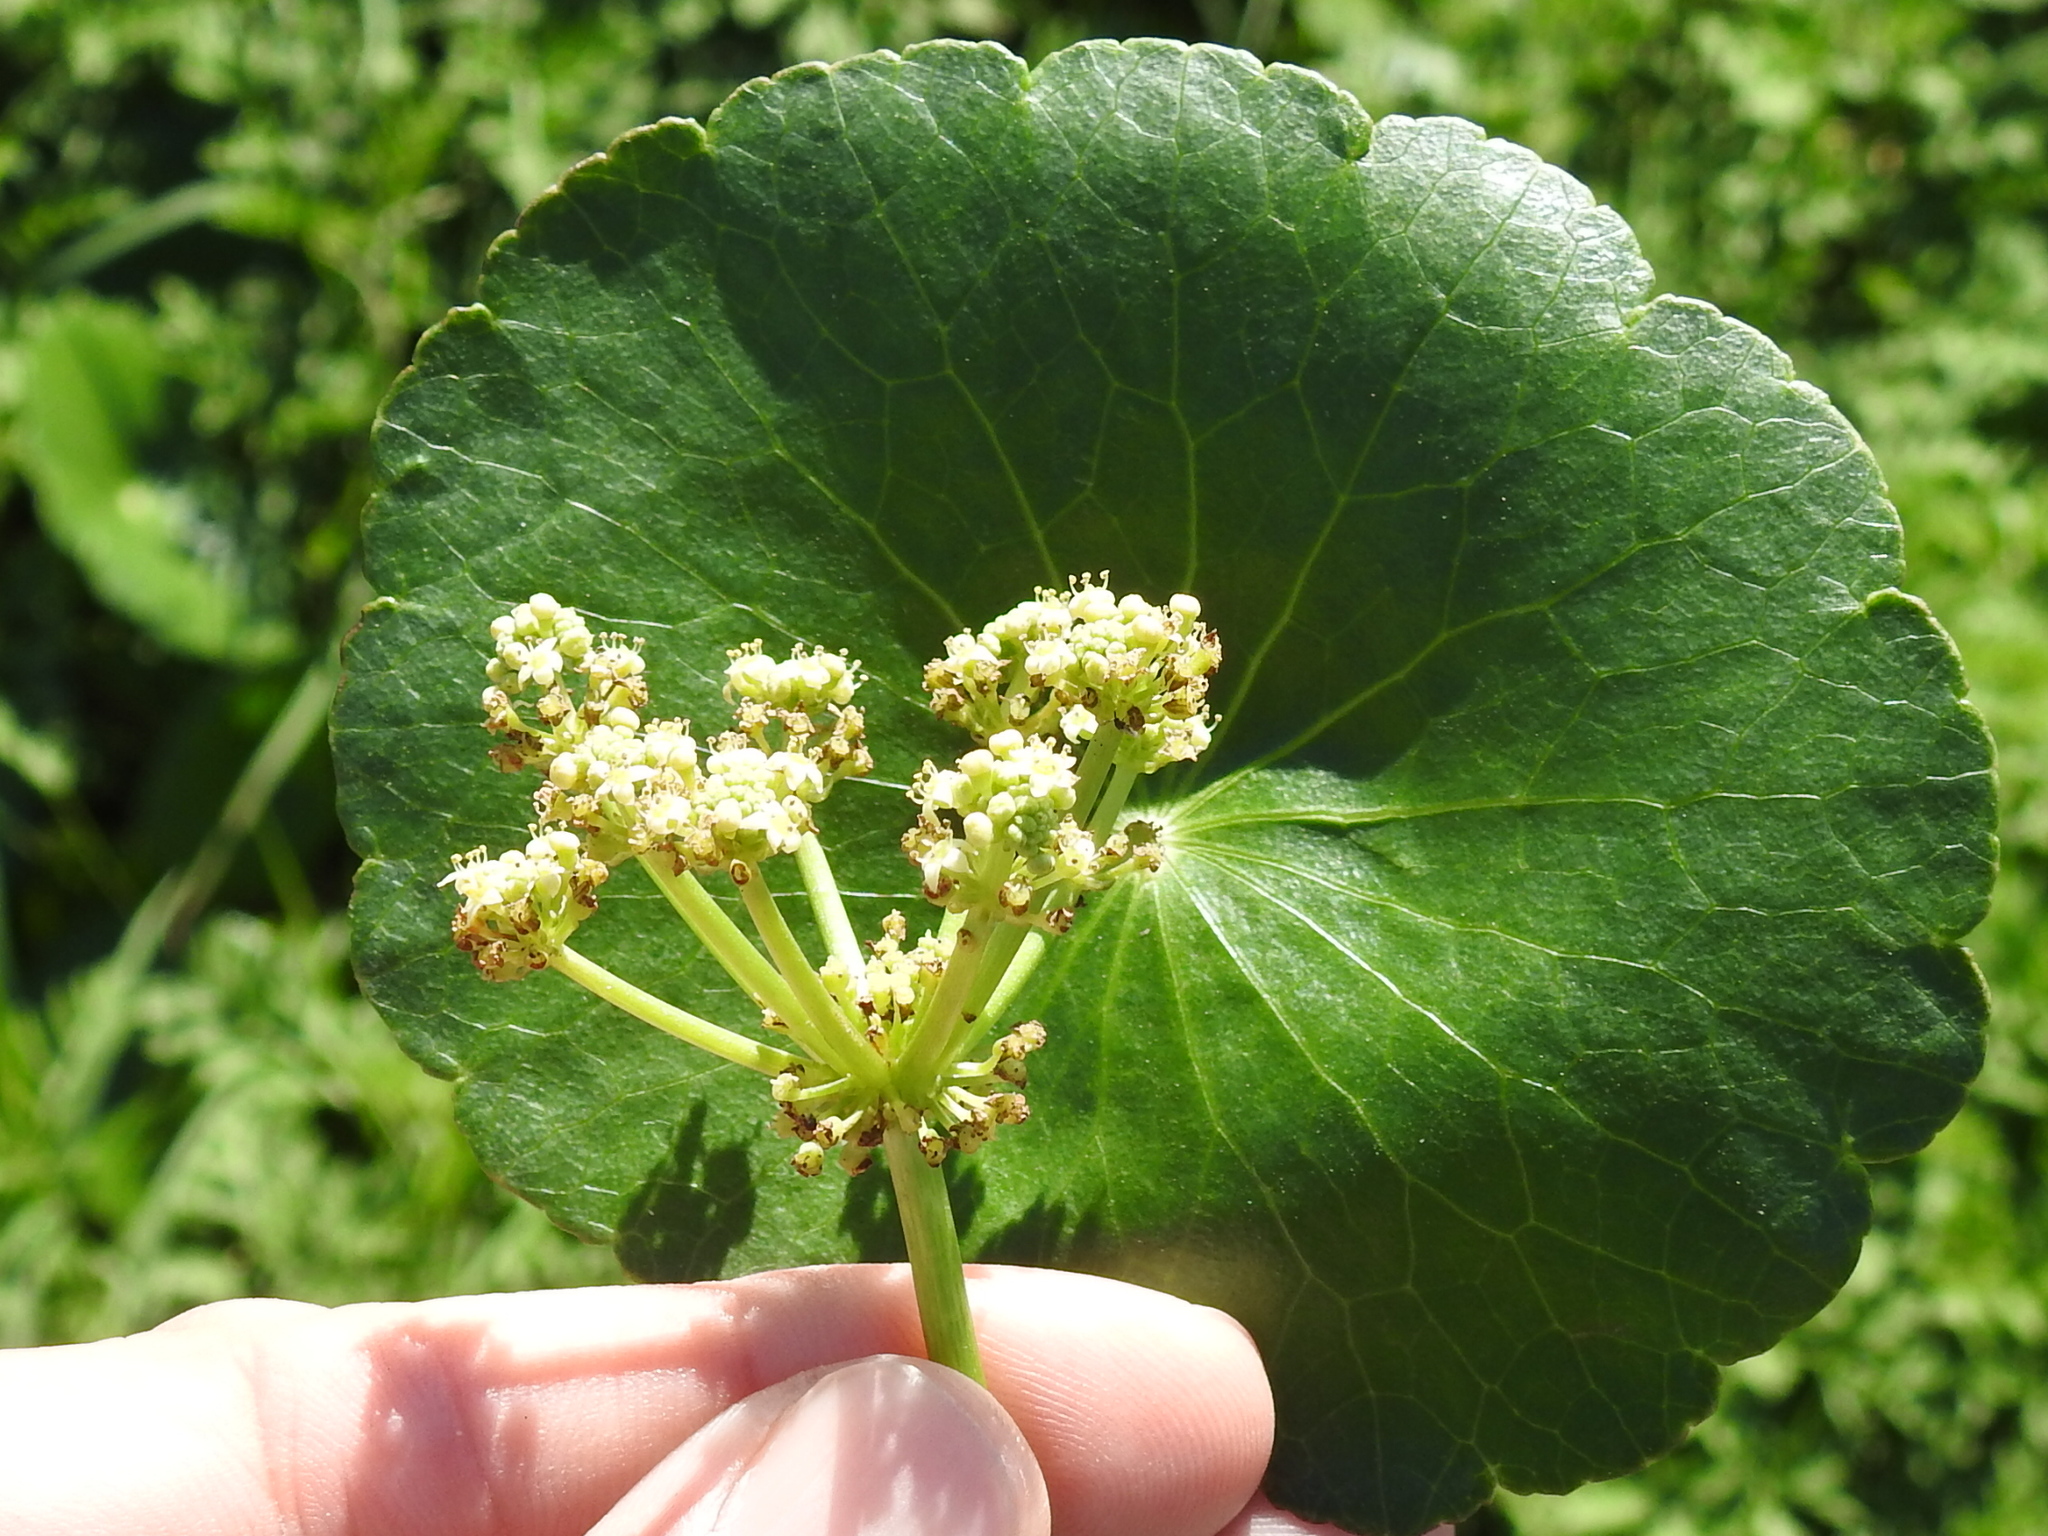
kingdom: Plantae
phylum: Tracheophyta
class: Magnoliopsida
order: Apiales
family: Araliaceae
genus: Hydrocotyle
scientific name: Hydrocotyle bonariensis
